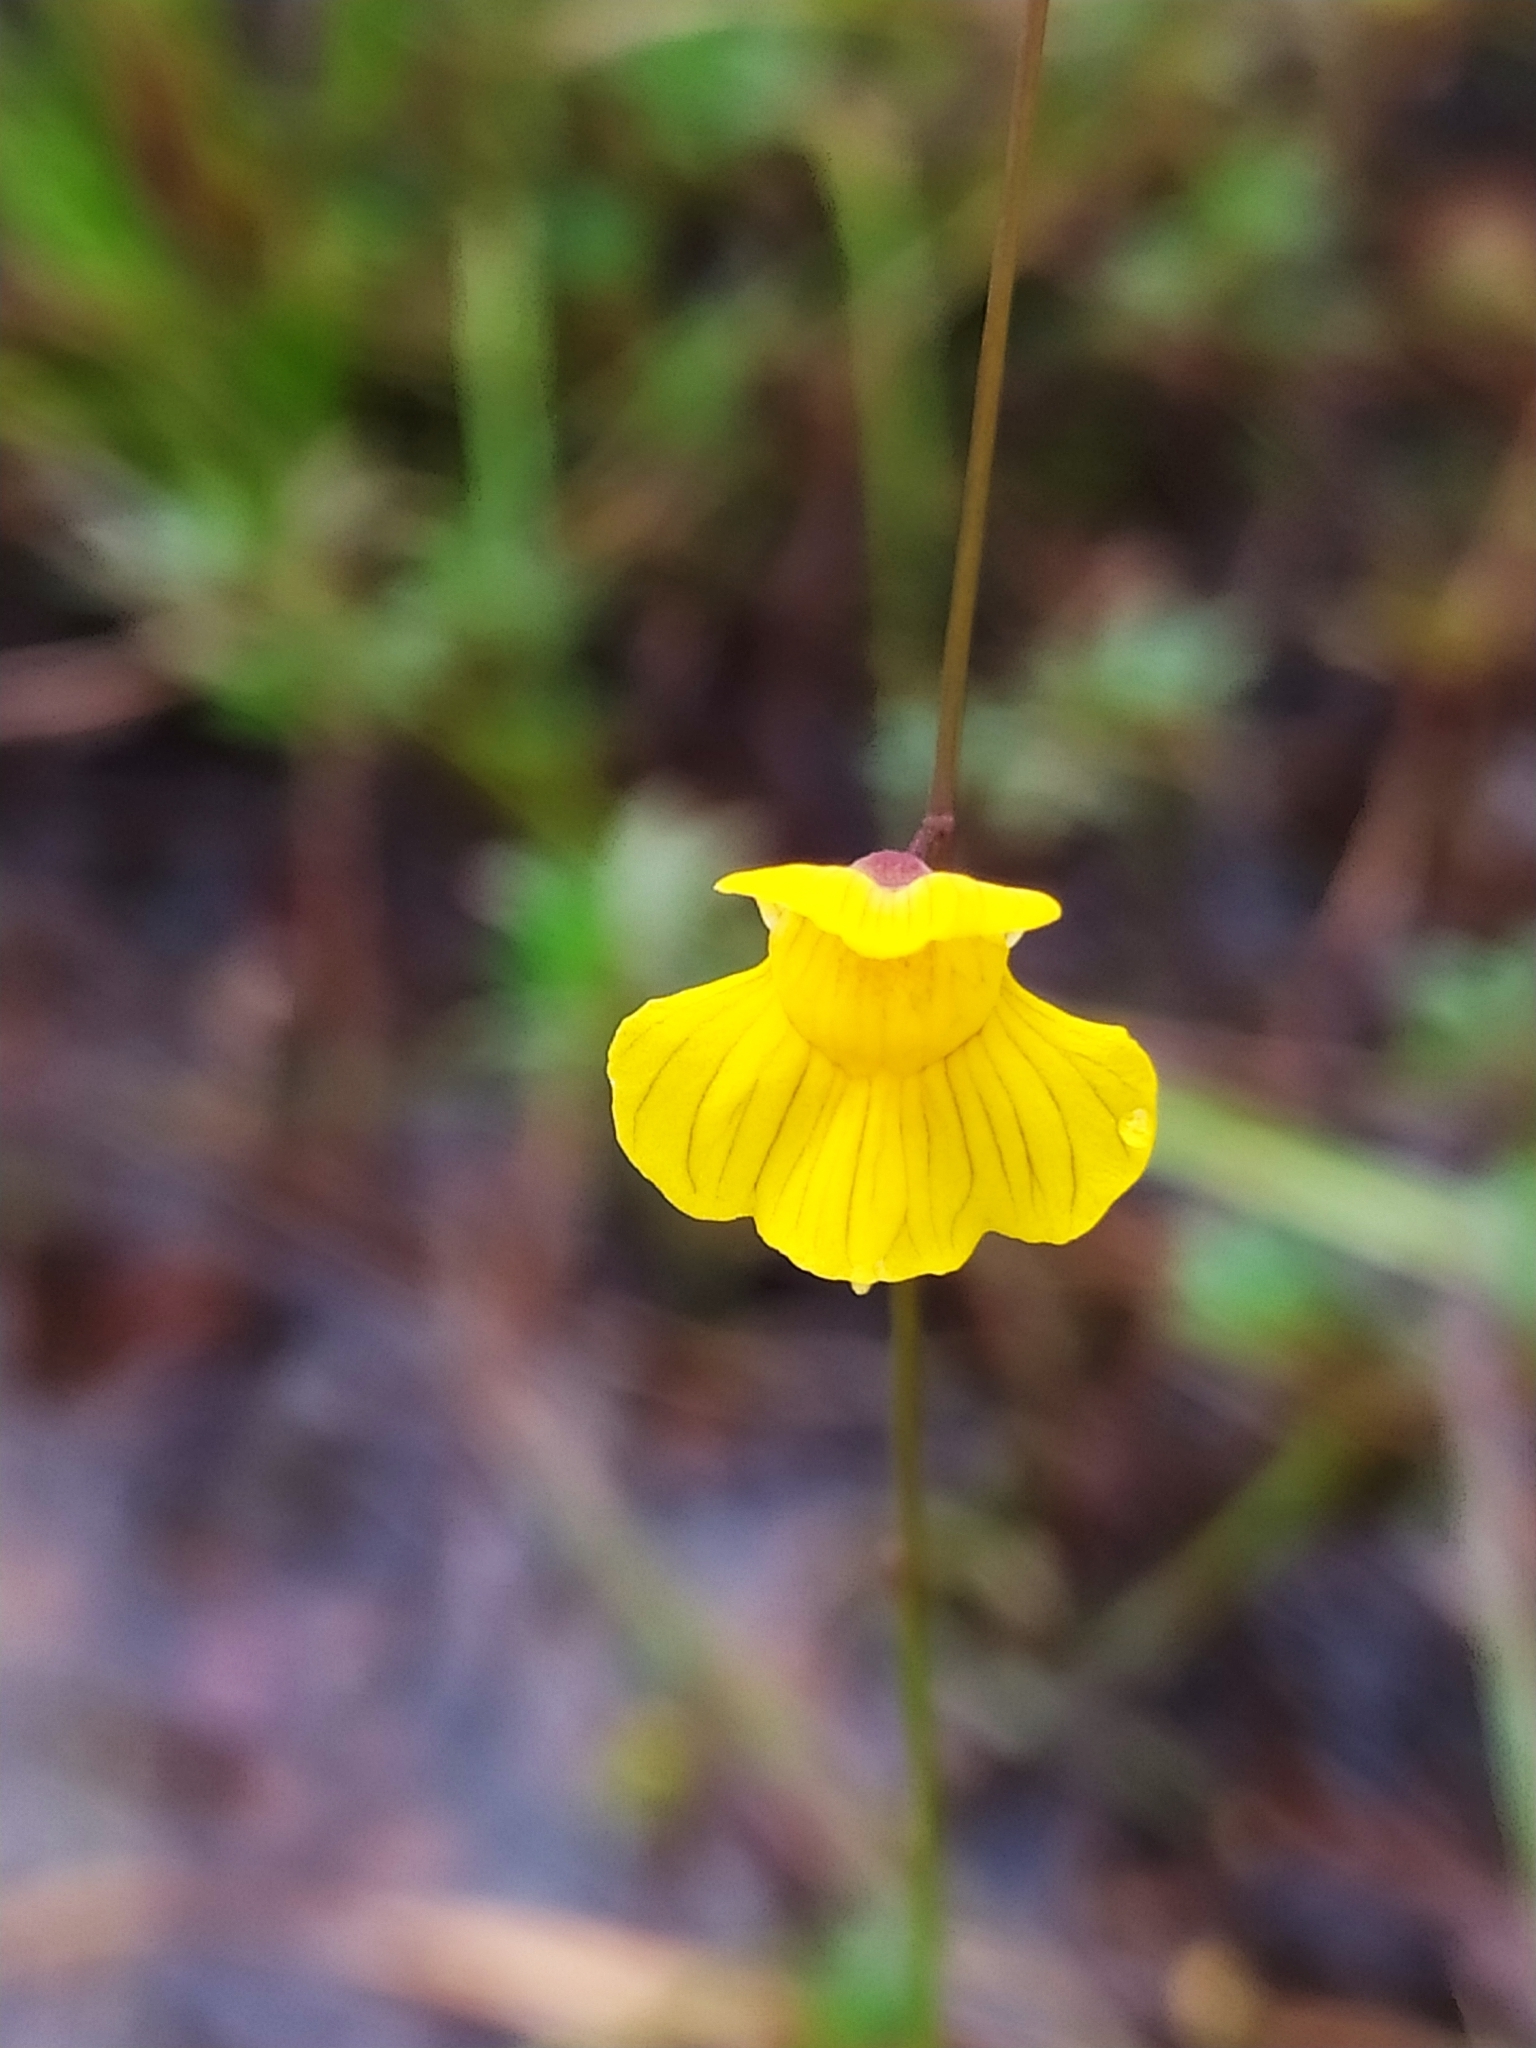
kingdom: Plantae
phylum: Tracheophyta
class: Magnoliopsida
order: Lamiales
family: Lentibulariaceae
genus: Utricularia
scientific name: Utricularia hispida
